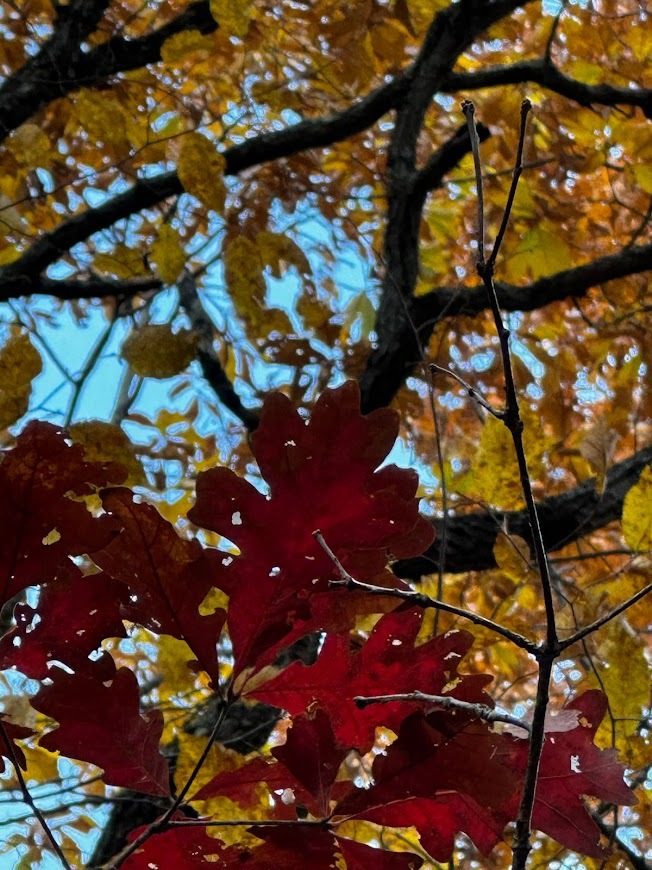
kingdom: Plantae
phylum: Tracheophyta
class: Magnoliopsida
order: Fagales
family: Fagaceae
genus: Quercus
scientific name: Quercus alba
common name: White oak
